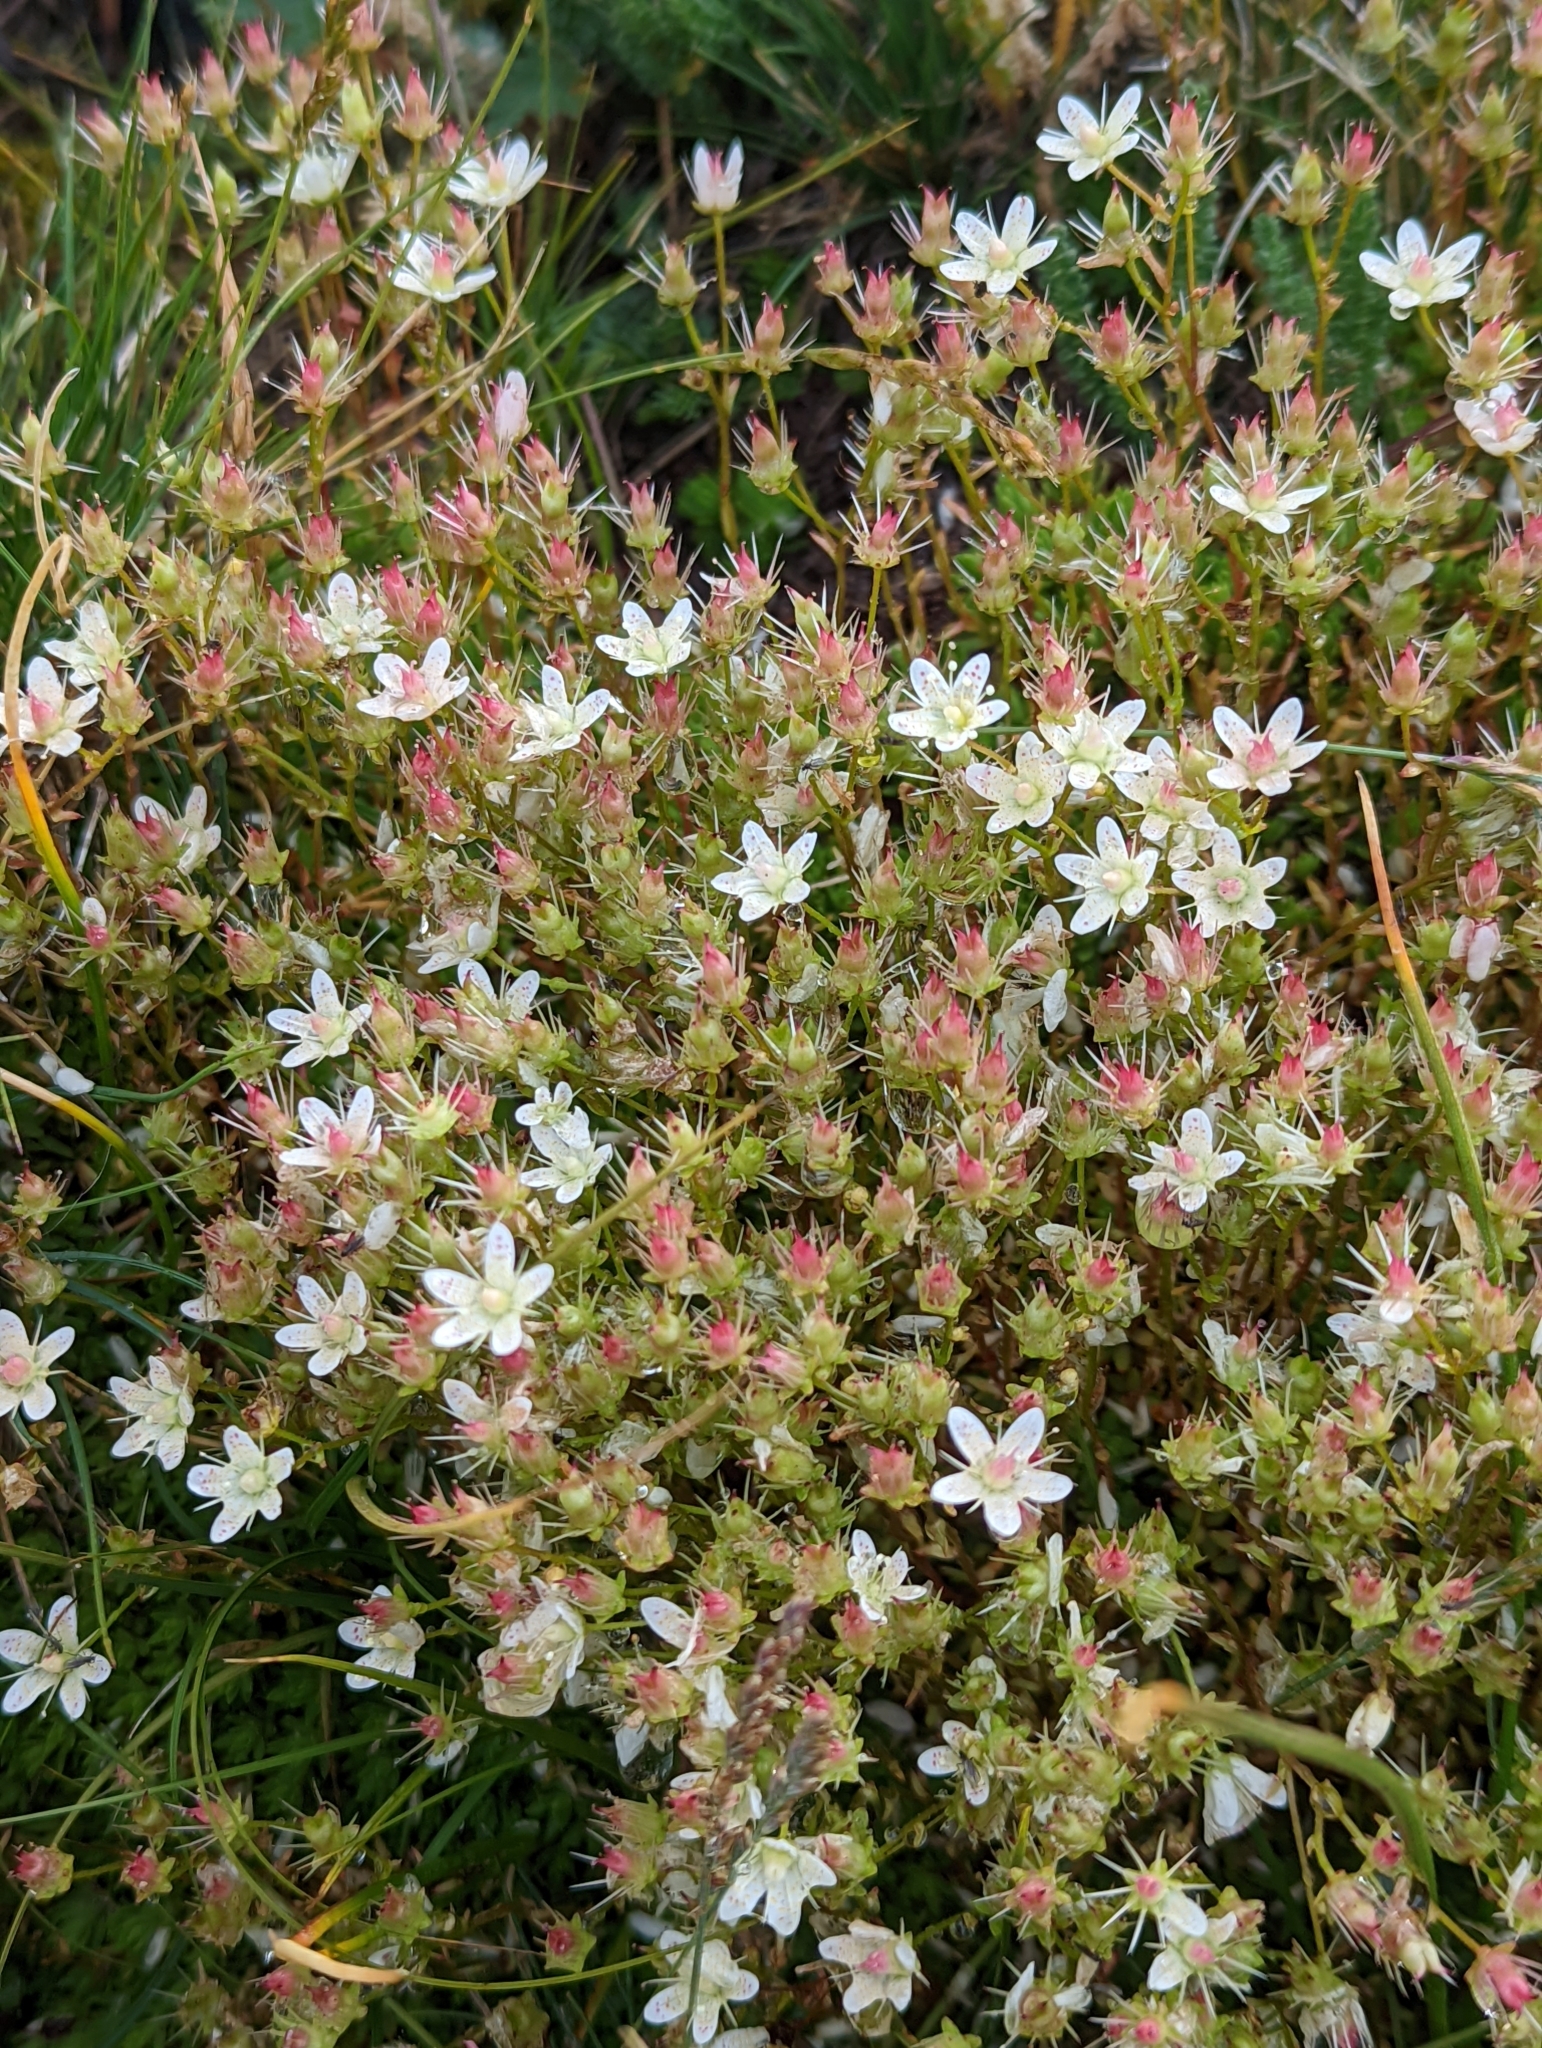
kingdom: Plantae
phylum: Tracheophyta
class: Magnoliopsida
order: Saxifragales
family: Saxifragaceae
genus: Saxifraga
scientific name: Saxifraga bronchialis
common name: Matted saxifrage
